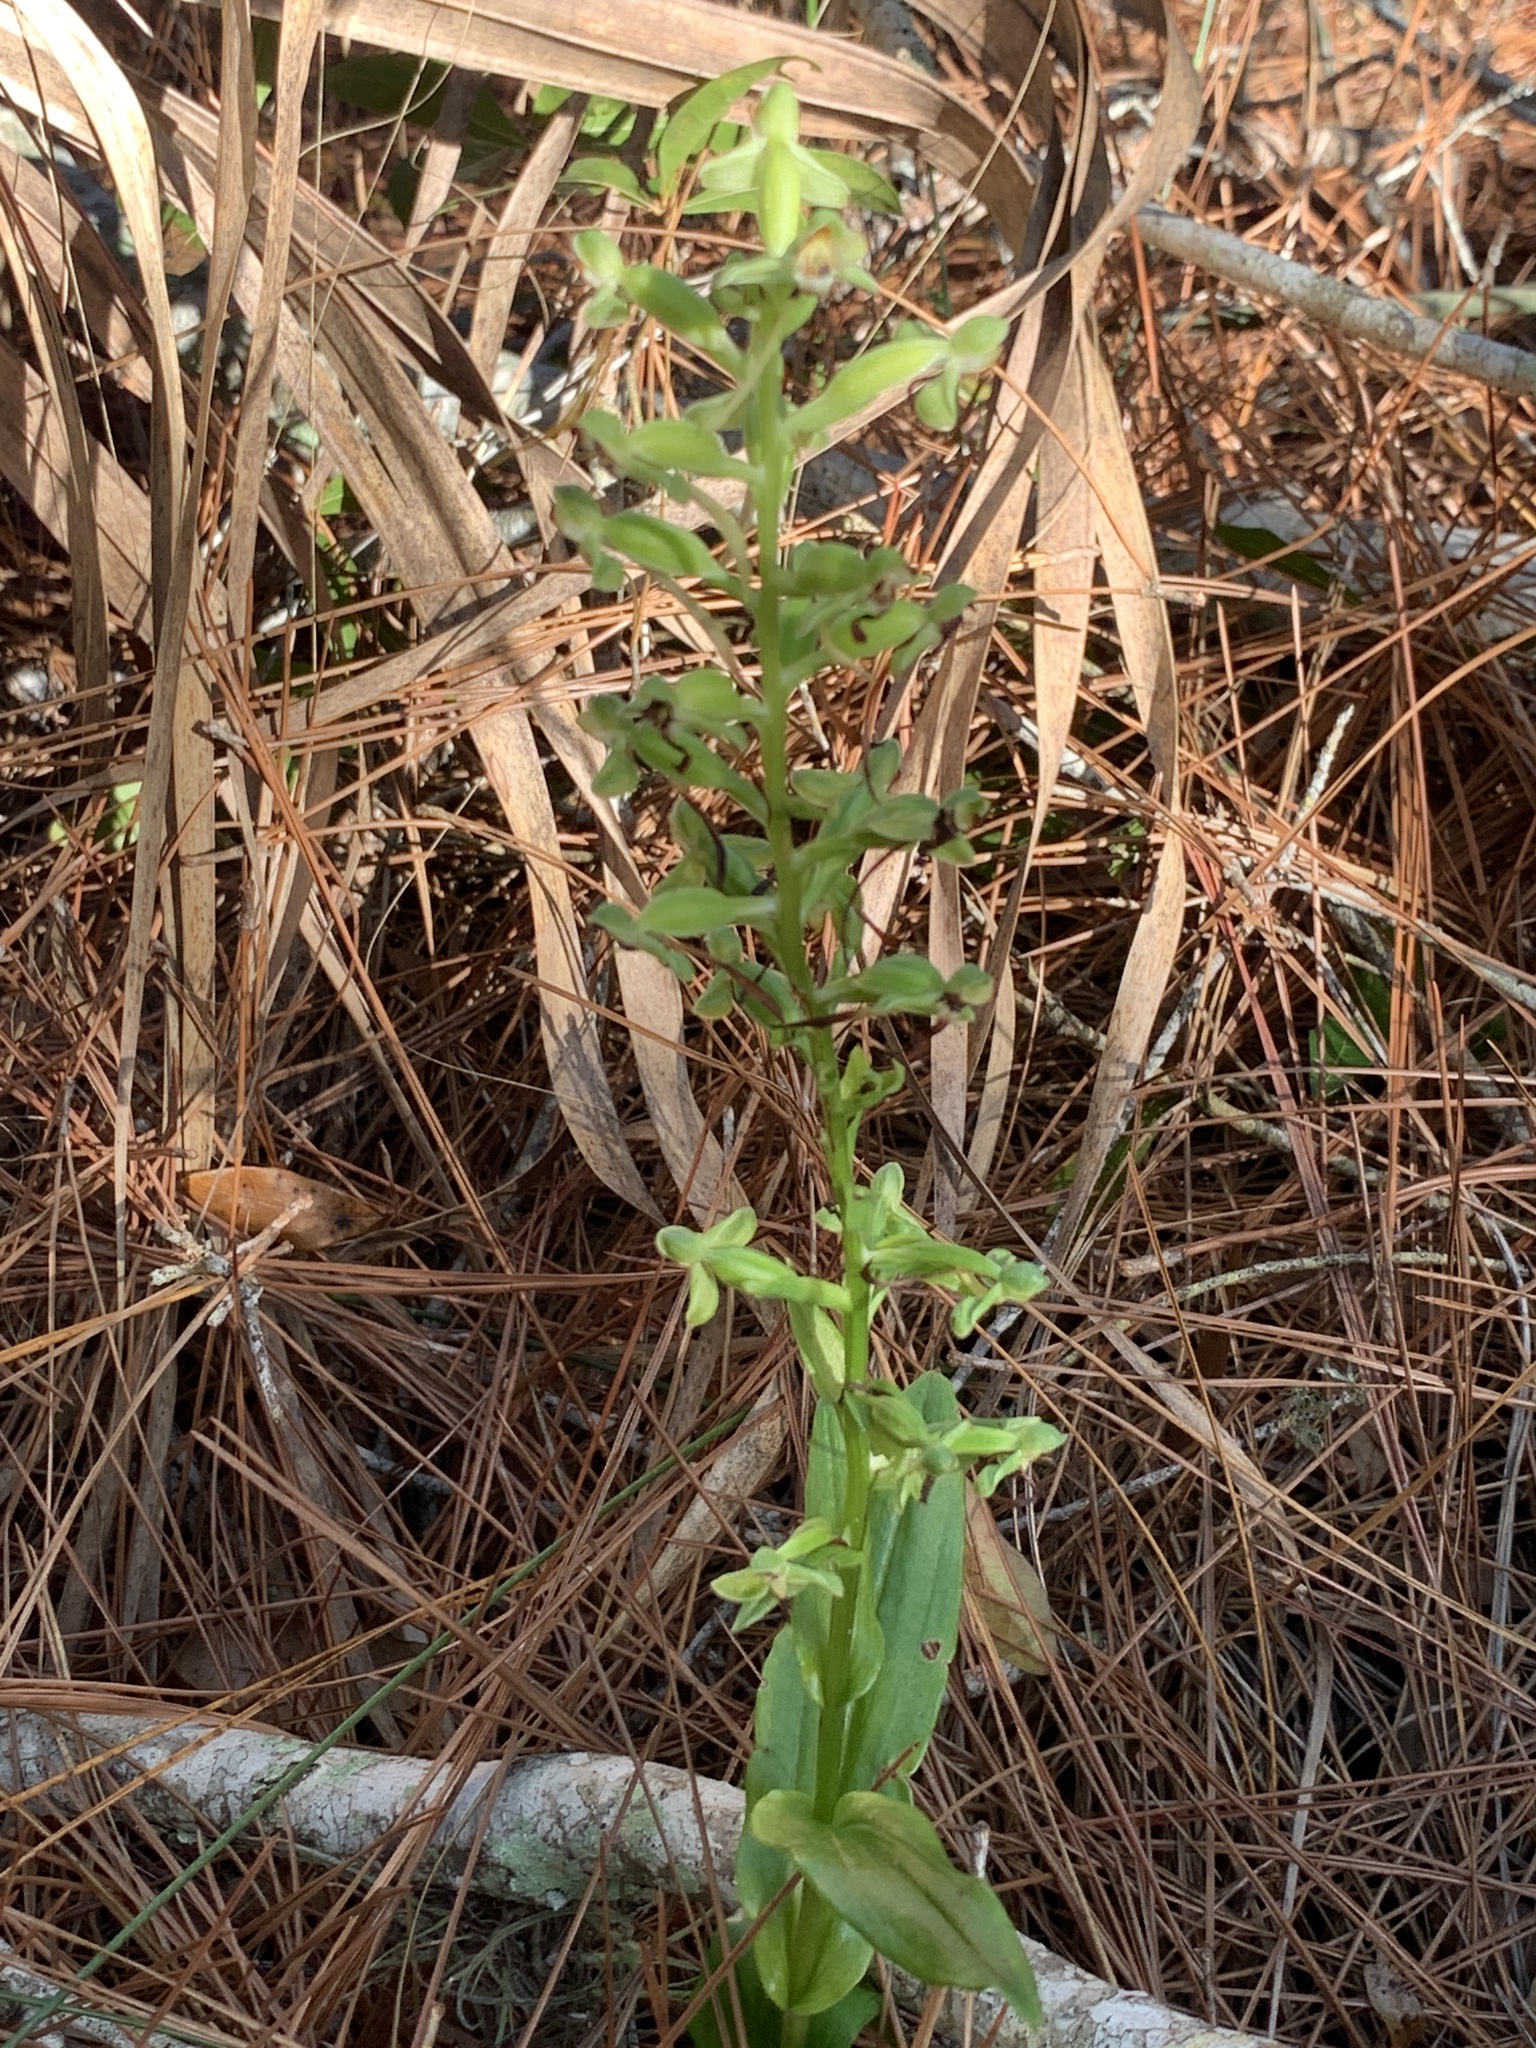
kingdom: Plantae
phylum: Tracheophyta
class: Liliopsida
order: Asparagales
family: Orchidaceae
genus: Habenaria
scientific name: Habenaria floribunda
